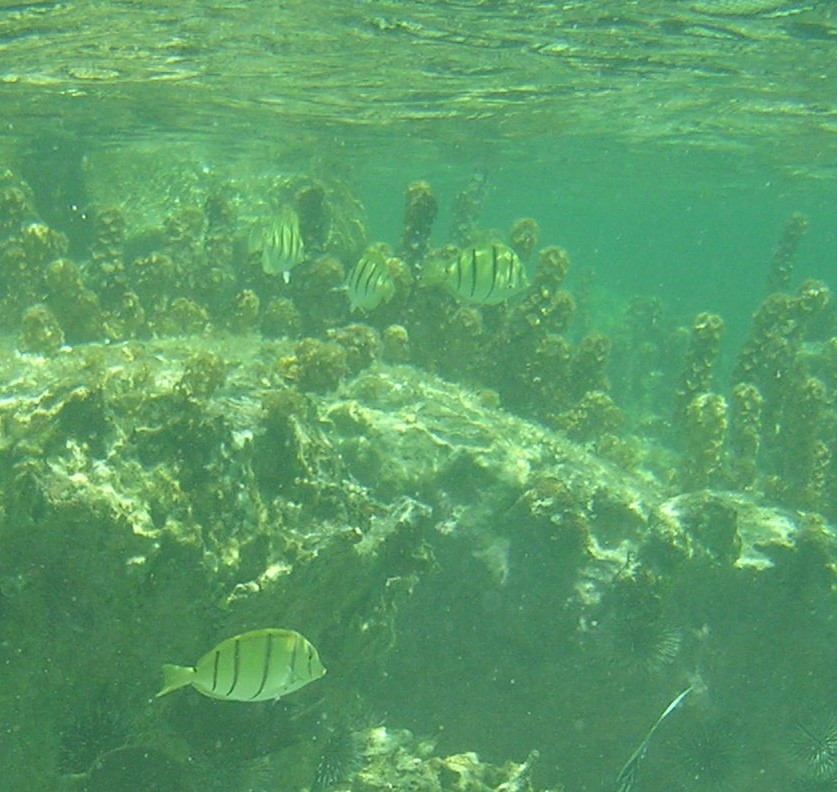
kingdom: Animalia
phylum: Chordata
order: Perciformes
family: Acanthuridae
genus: Acanthurus
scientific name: Acanthurus triostegus
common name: Convict surgeonfish
